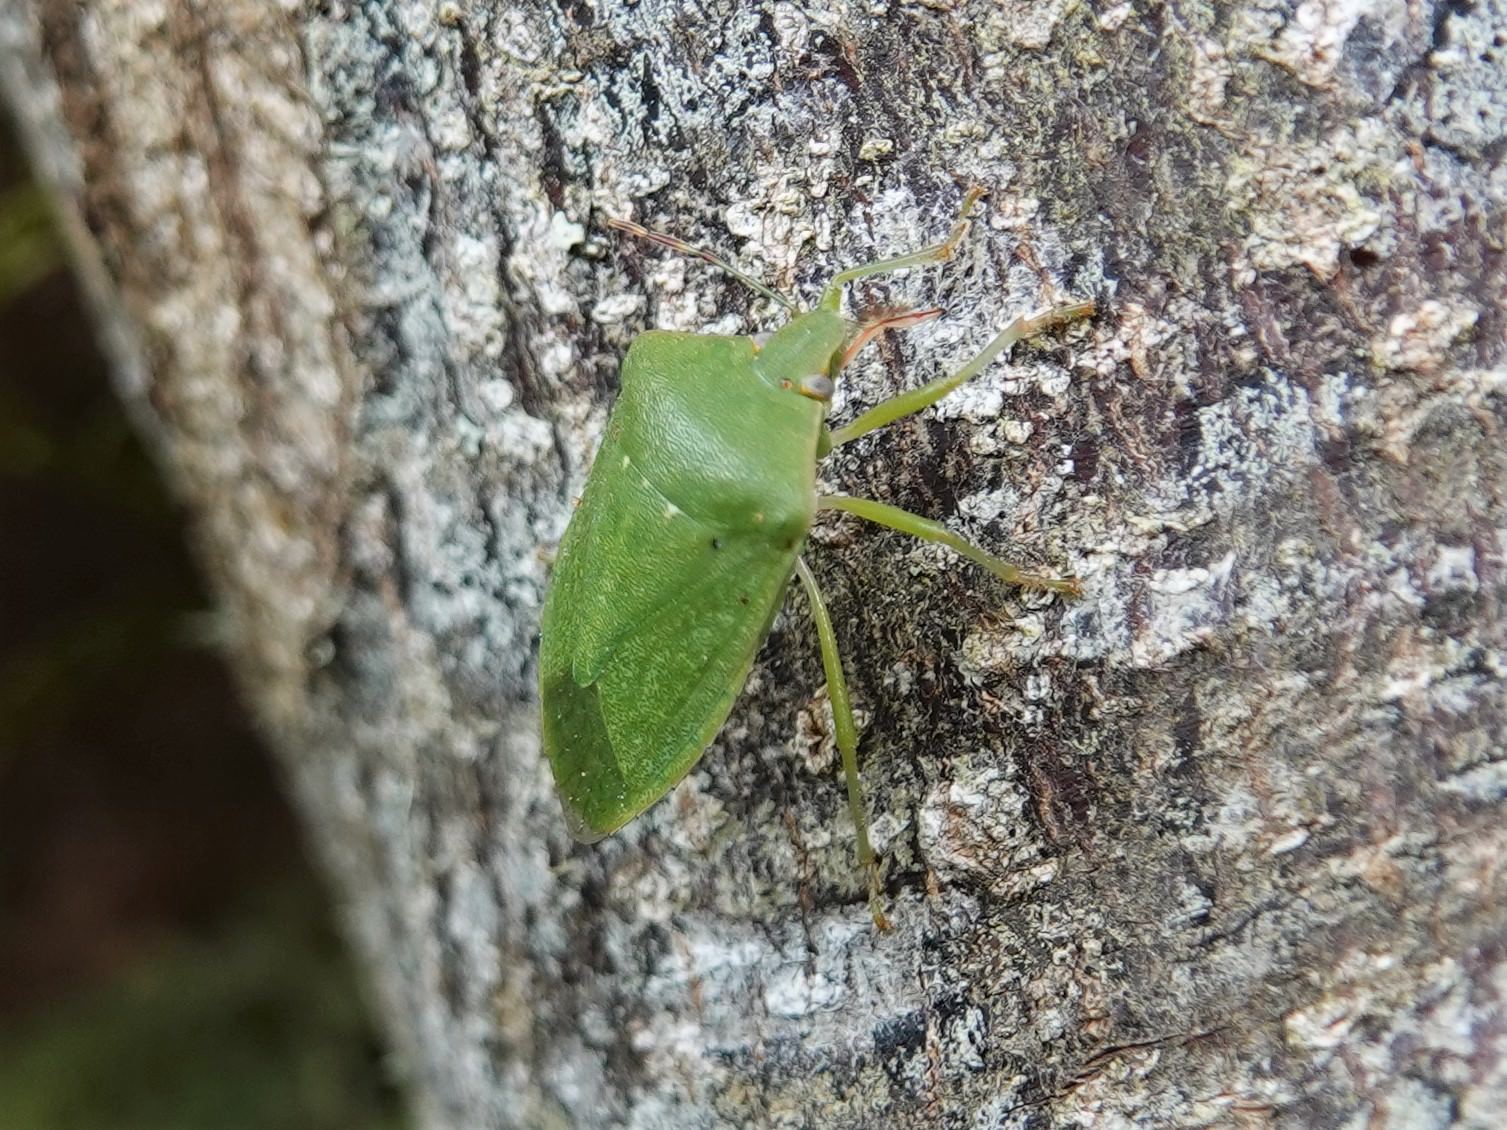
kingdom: Animalia
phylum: Arthropoda
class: Insecta
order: Hemiptera
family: Pentatomidae
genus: Nezara
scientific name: Nezara viridula
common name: Southern green stink bug
